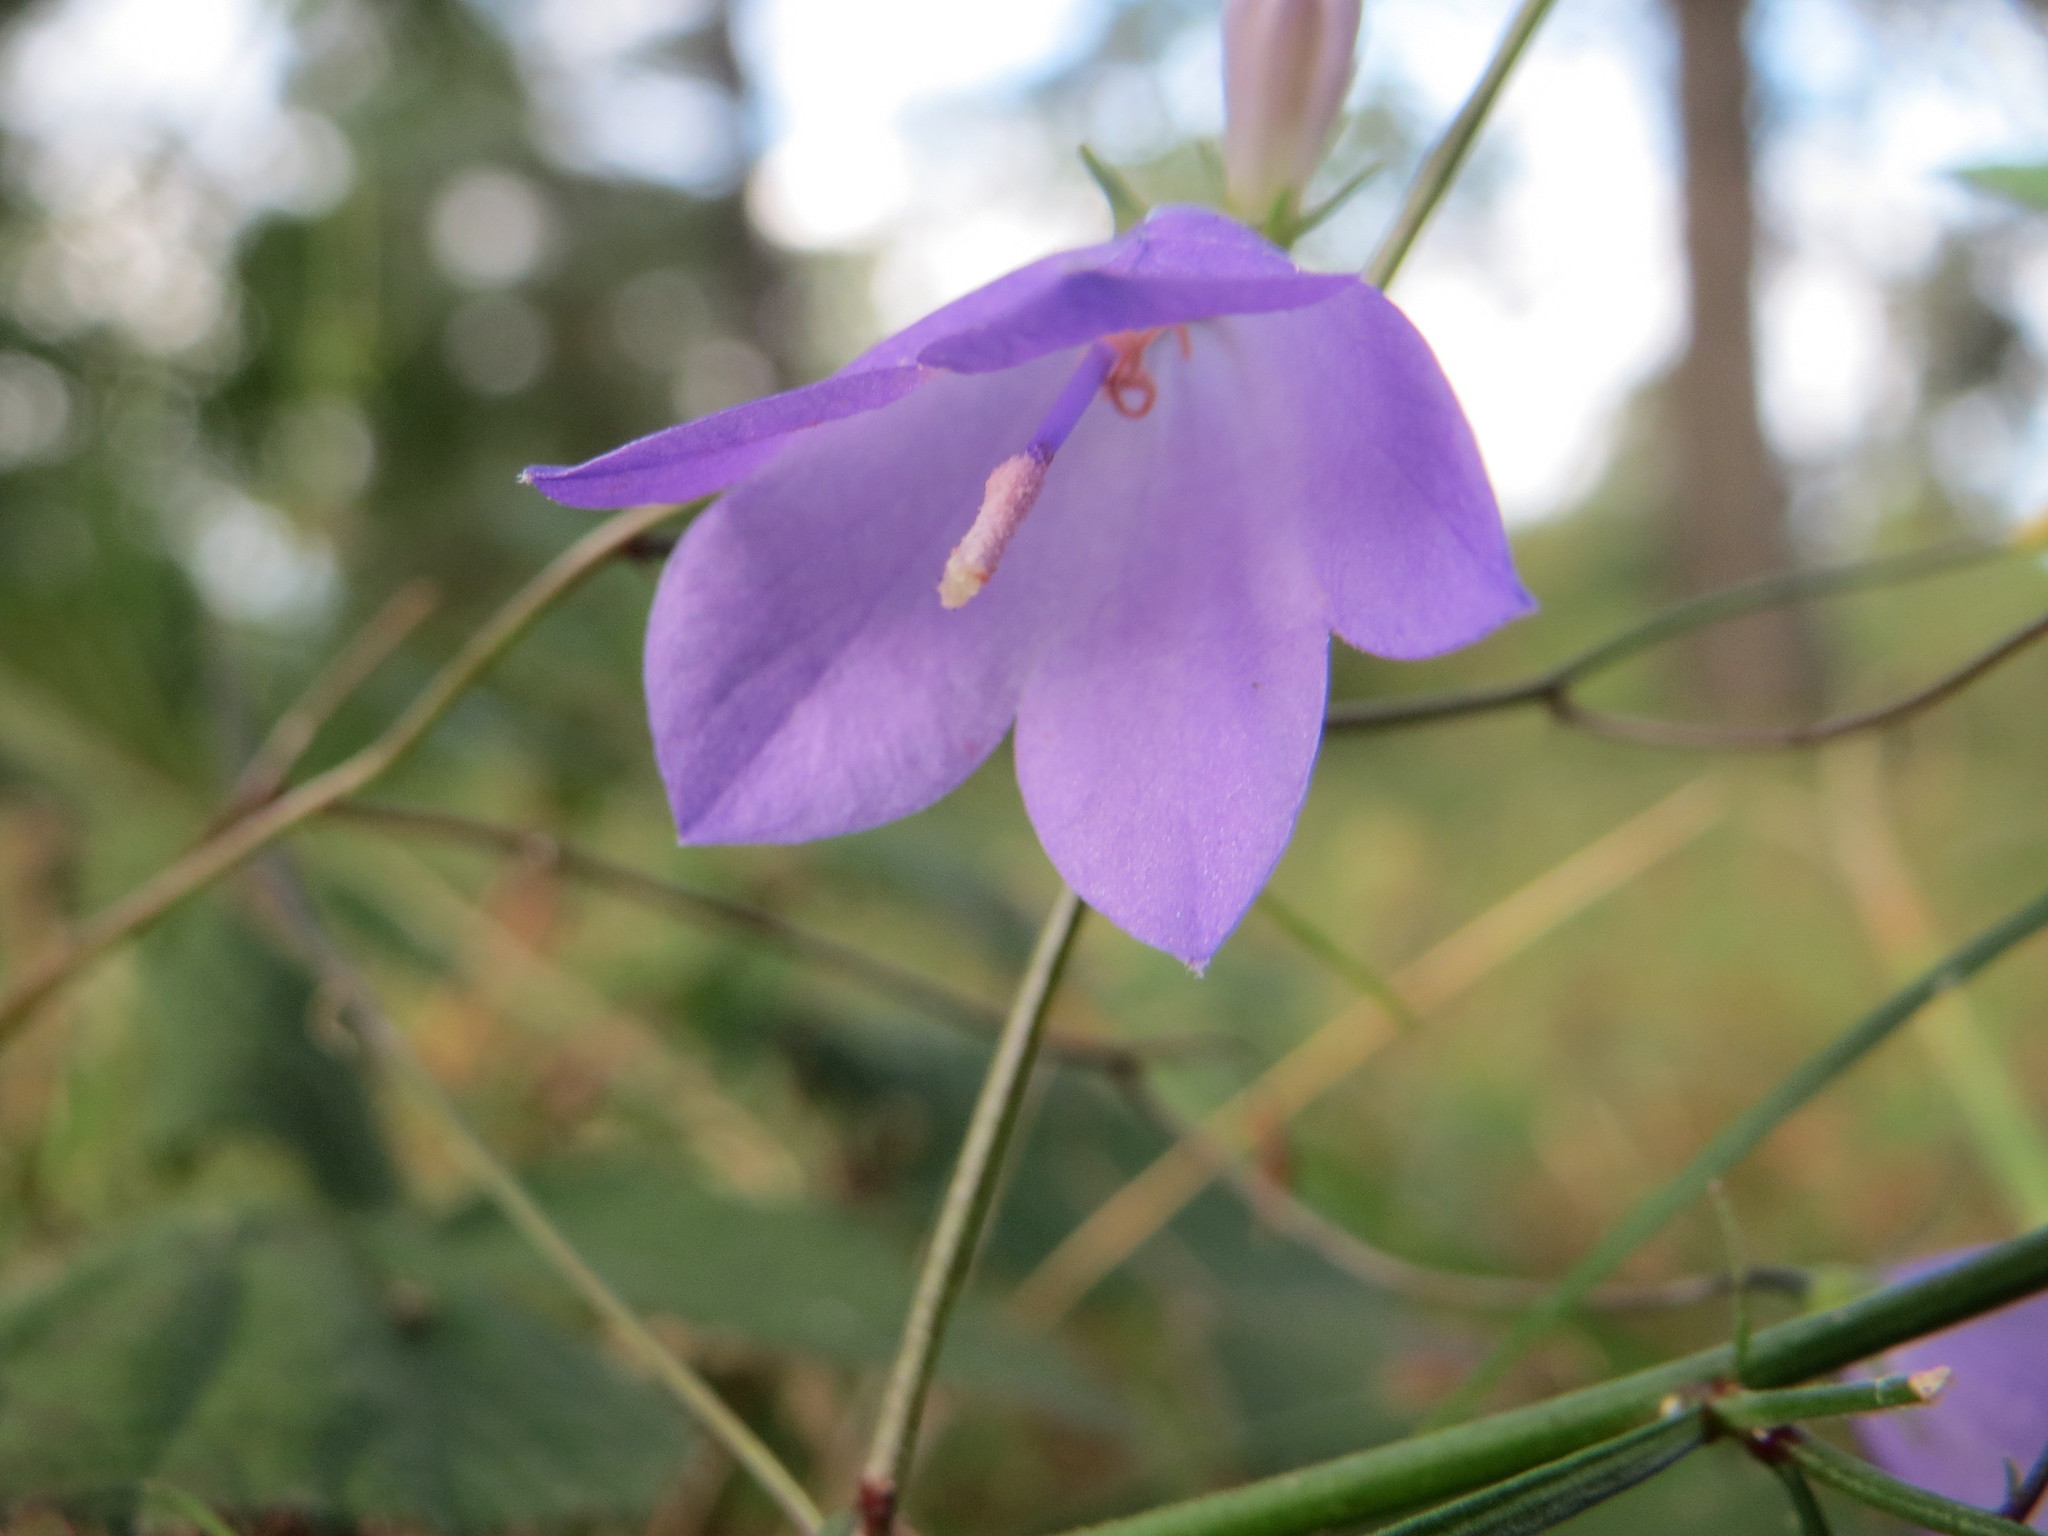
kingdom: Plantae
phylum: Tracheophyta
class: Magnoliopsida
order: Asterales
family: Campanulaceae
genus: Campanula
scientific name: Campanula rotundifolia
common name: Harebell
